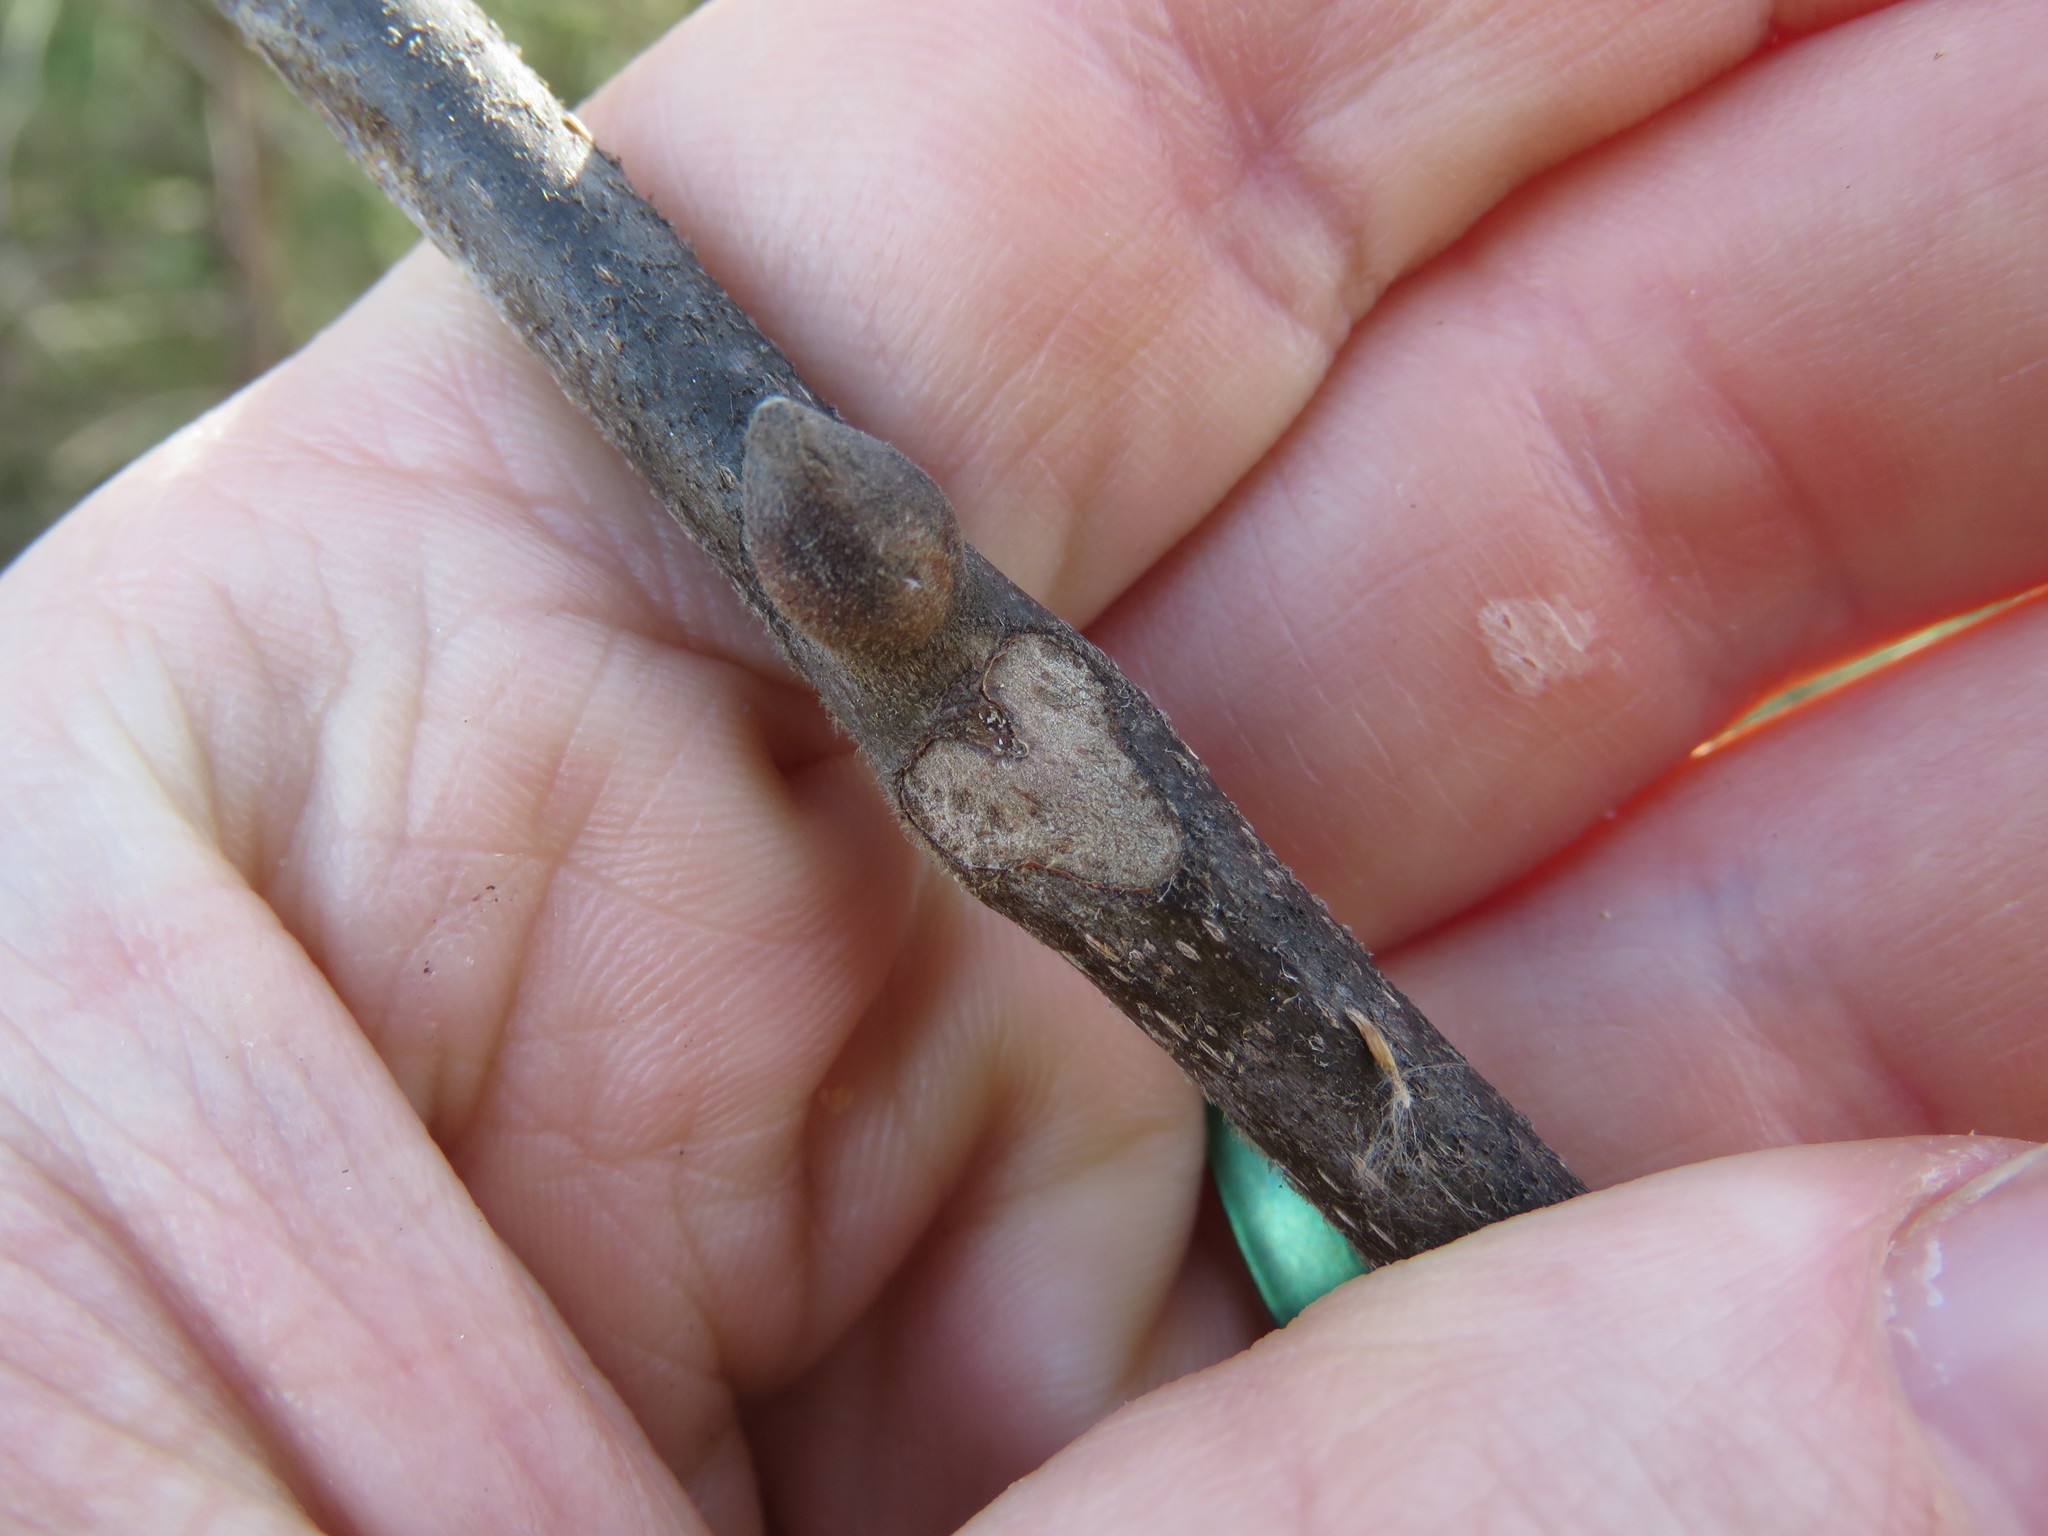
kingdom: Plantae
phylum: Tracheophyta
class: Magnoliopsida
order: Fagales
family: Juglandaceae
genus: Carya
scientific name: Carya alba
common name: Mockernut hickory
